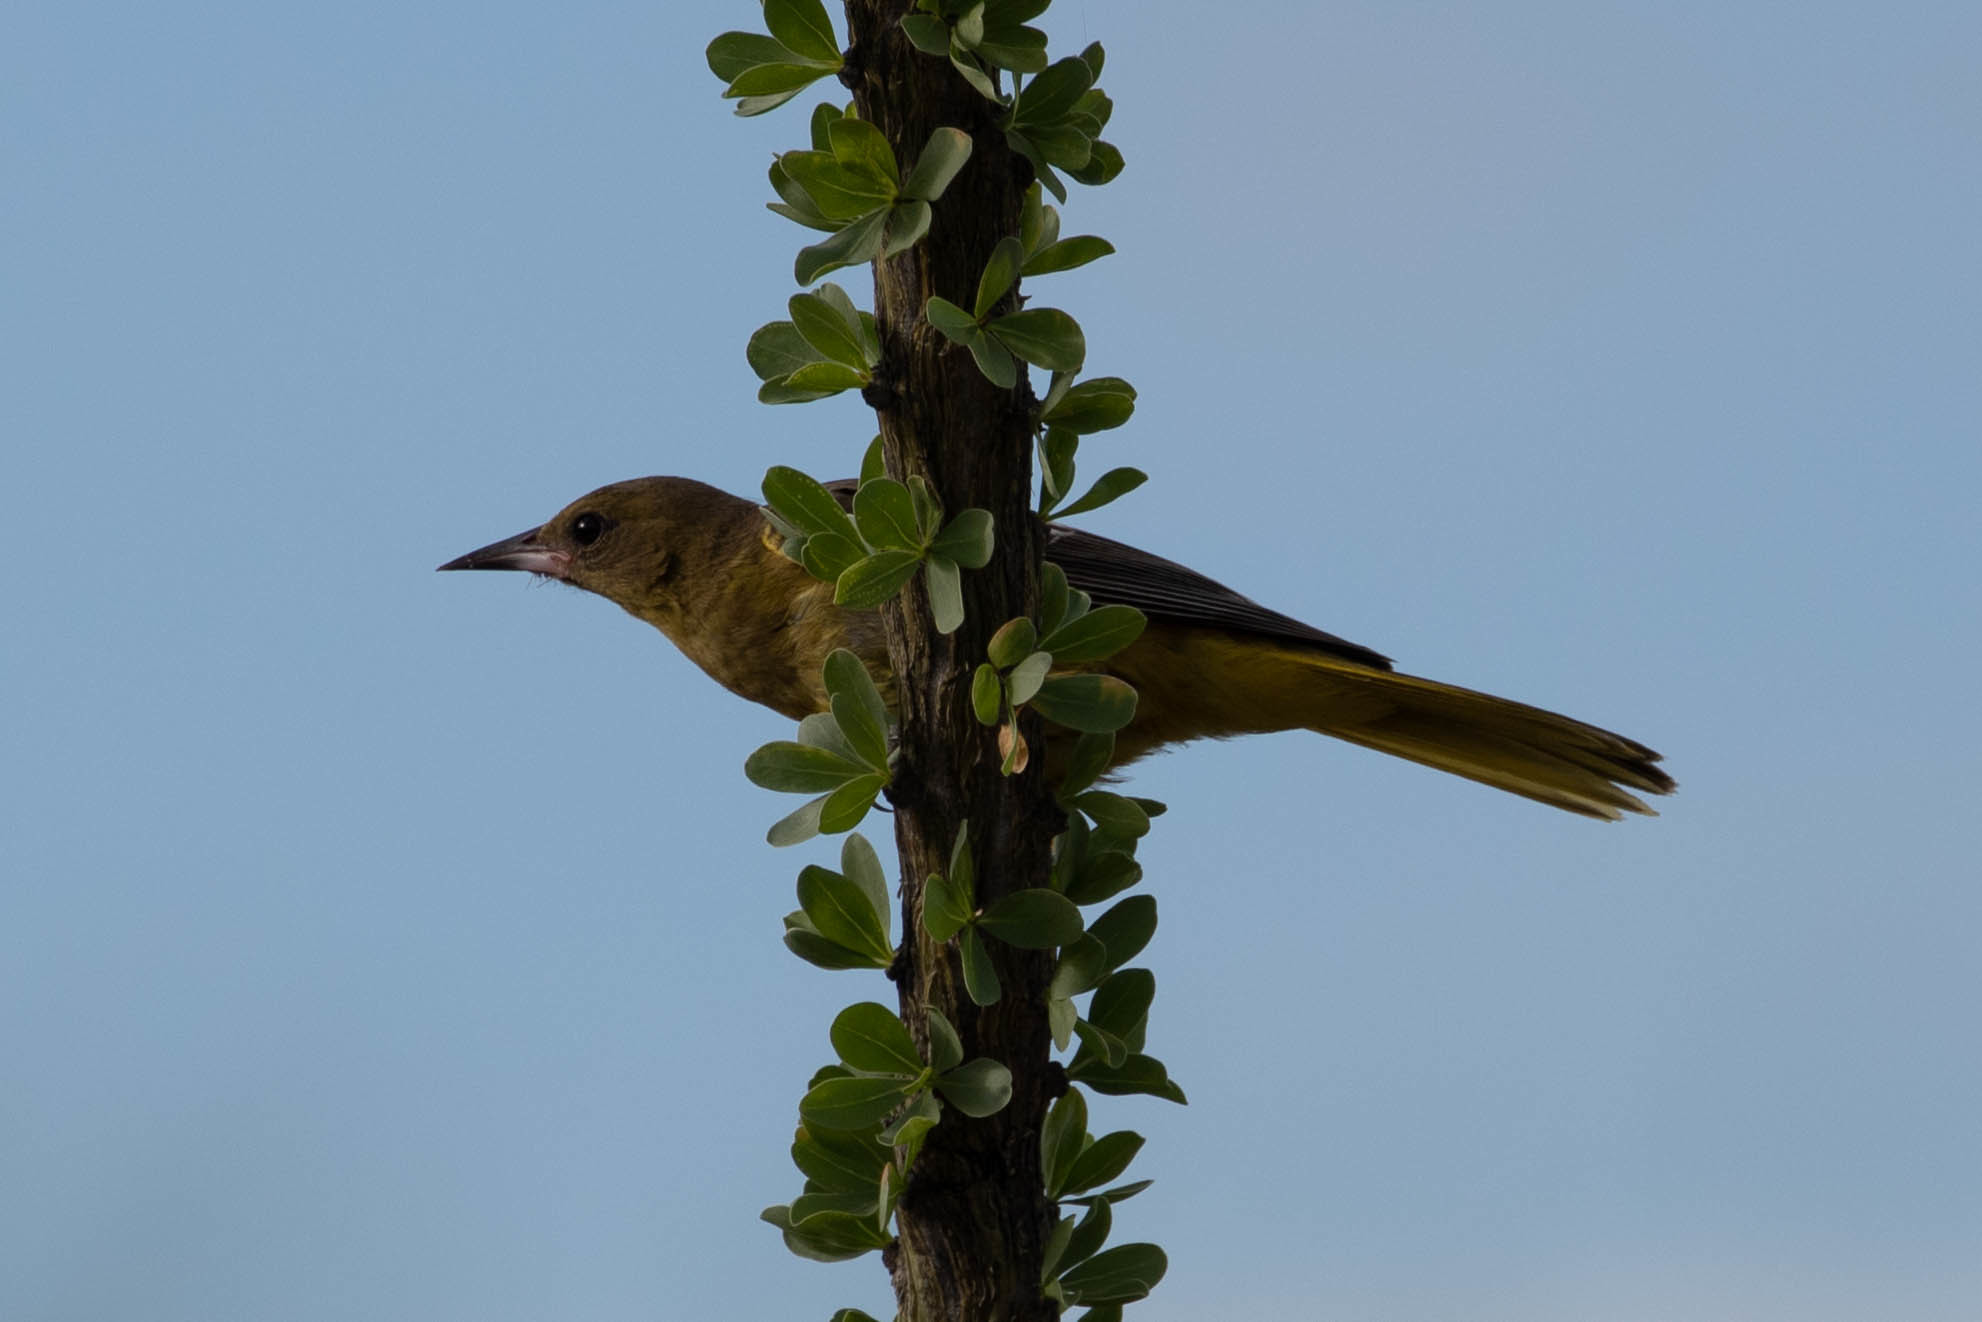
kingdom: Animalia
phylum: Chordata
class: Aves
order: Passeriformes
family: Icteridae
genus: Icterus
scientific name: Icterus parisorum
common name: Scott's oriole
